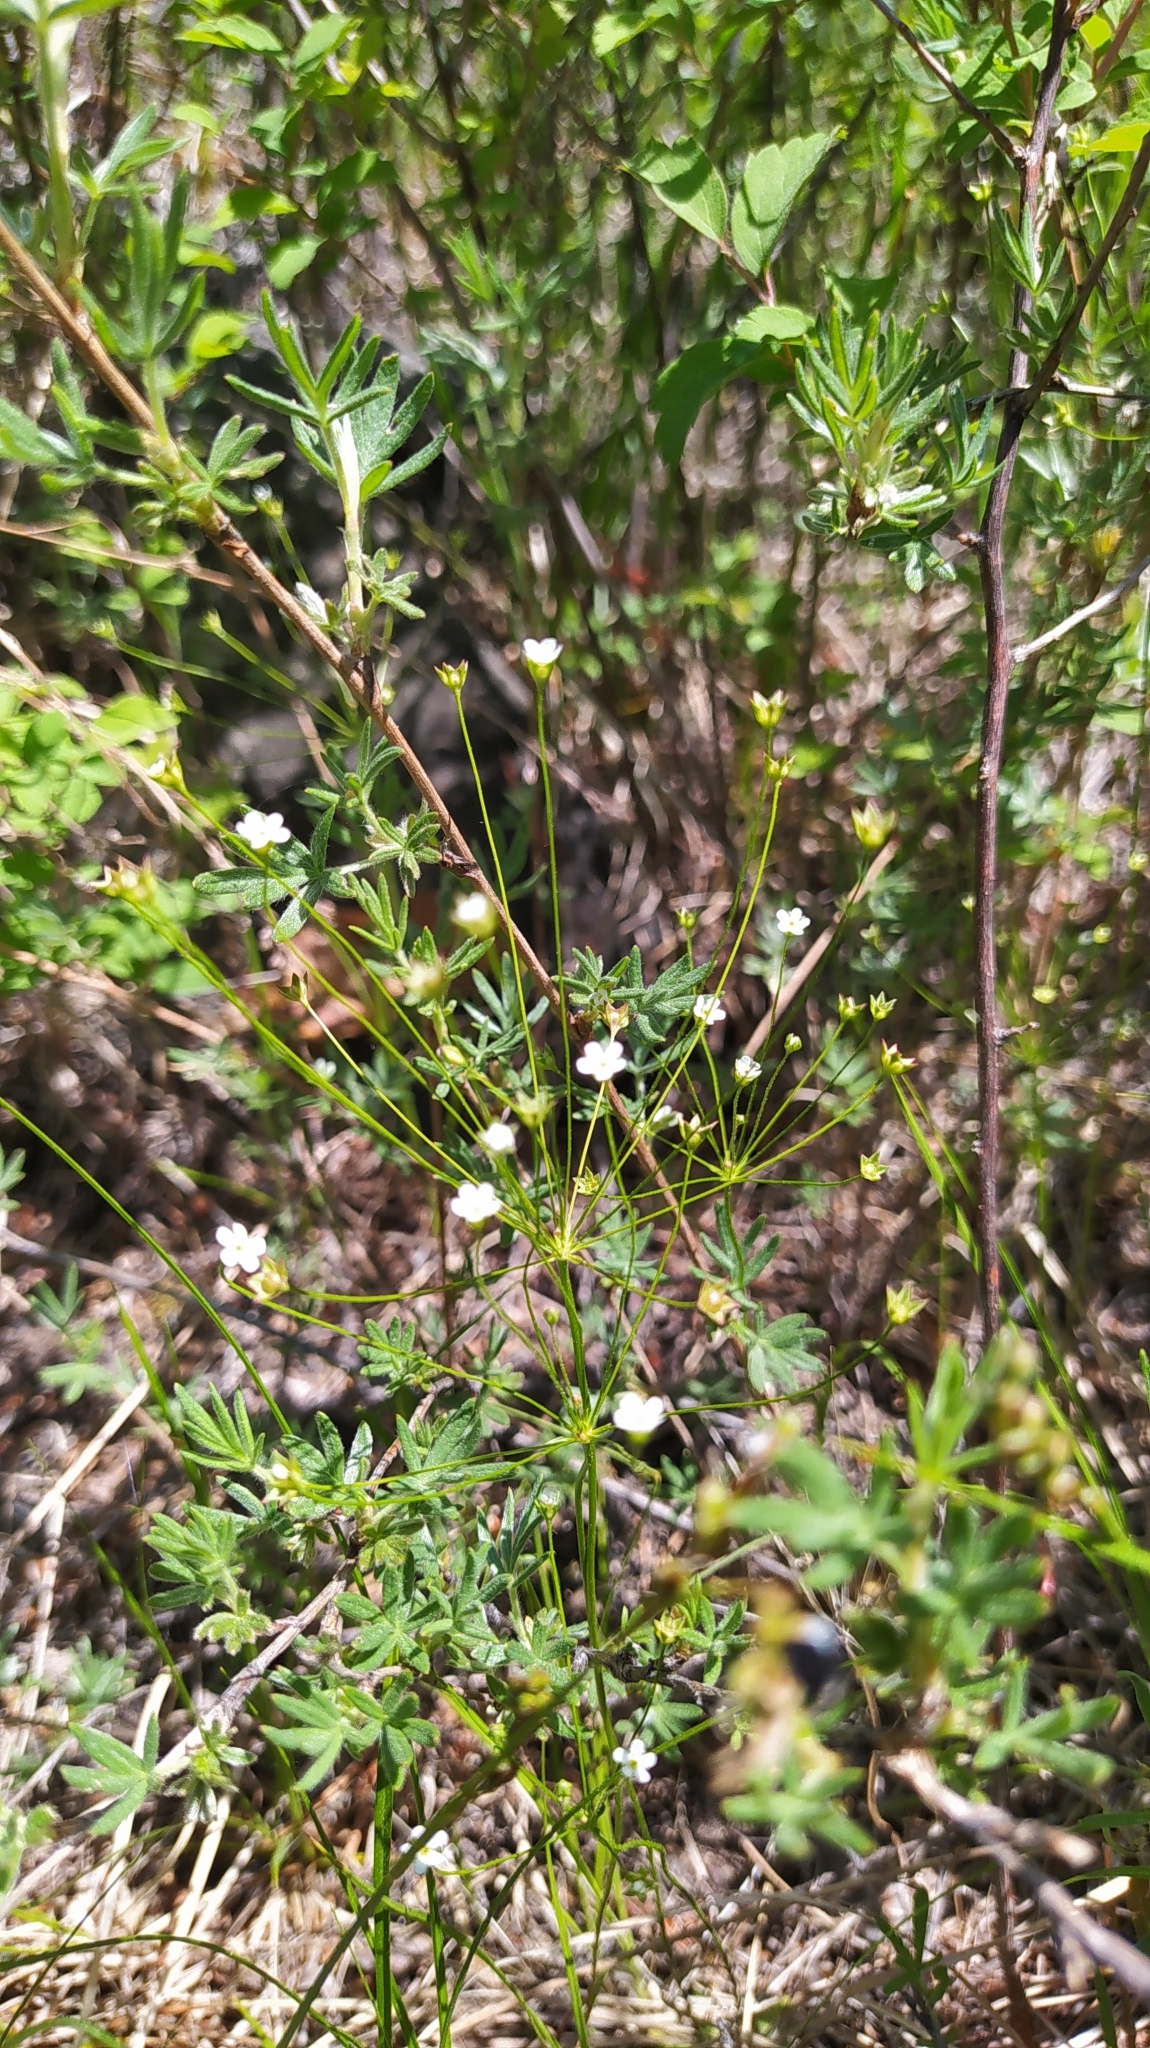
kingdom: Plantae
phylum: Tracheophyta
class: Magnoliopsida
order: Ericales
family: Primulaceae
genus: Androsace
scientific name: Androsace septentrionalis
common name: Hairy northern fairy-candelabra
